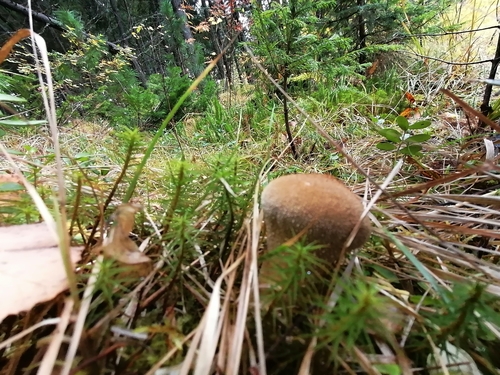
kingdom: Fungi
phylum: Basidiomycota
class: Agaricomycetes
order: Agaricales
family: Lycoperdaceae
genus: Lycoperdon
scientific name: Lycoperdon
